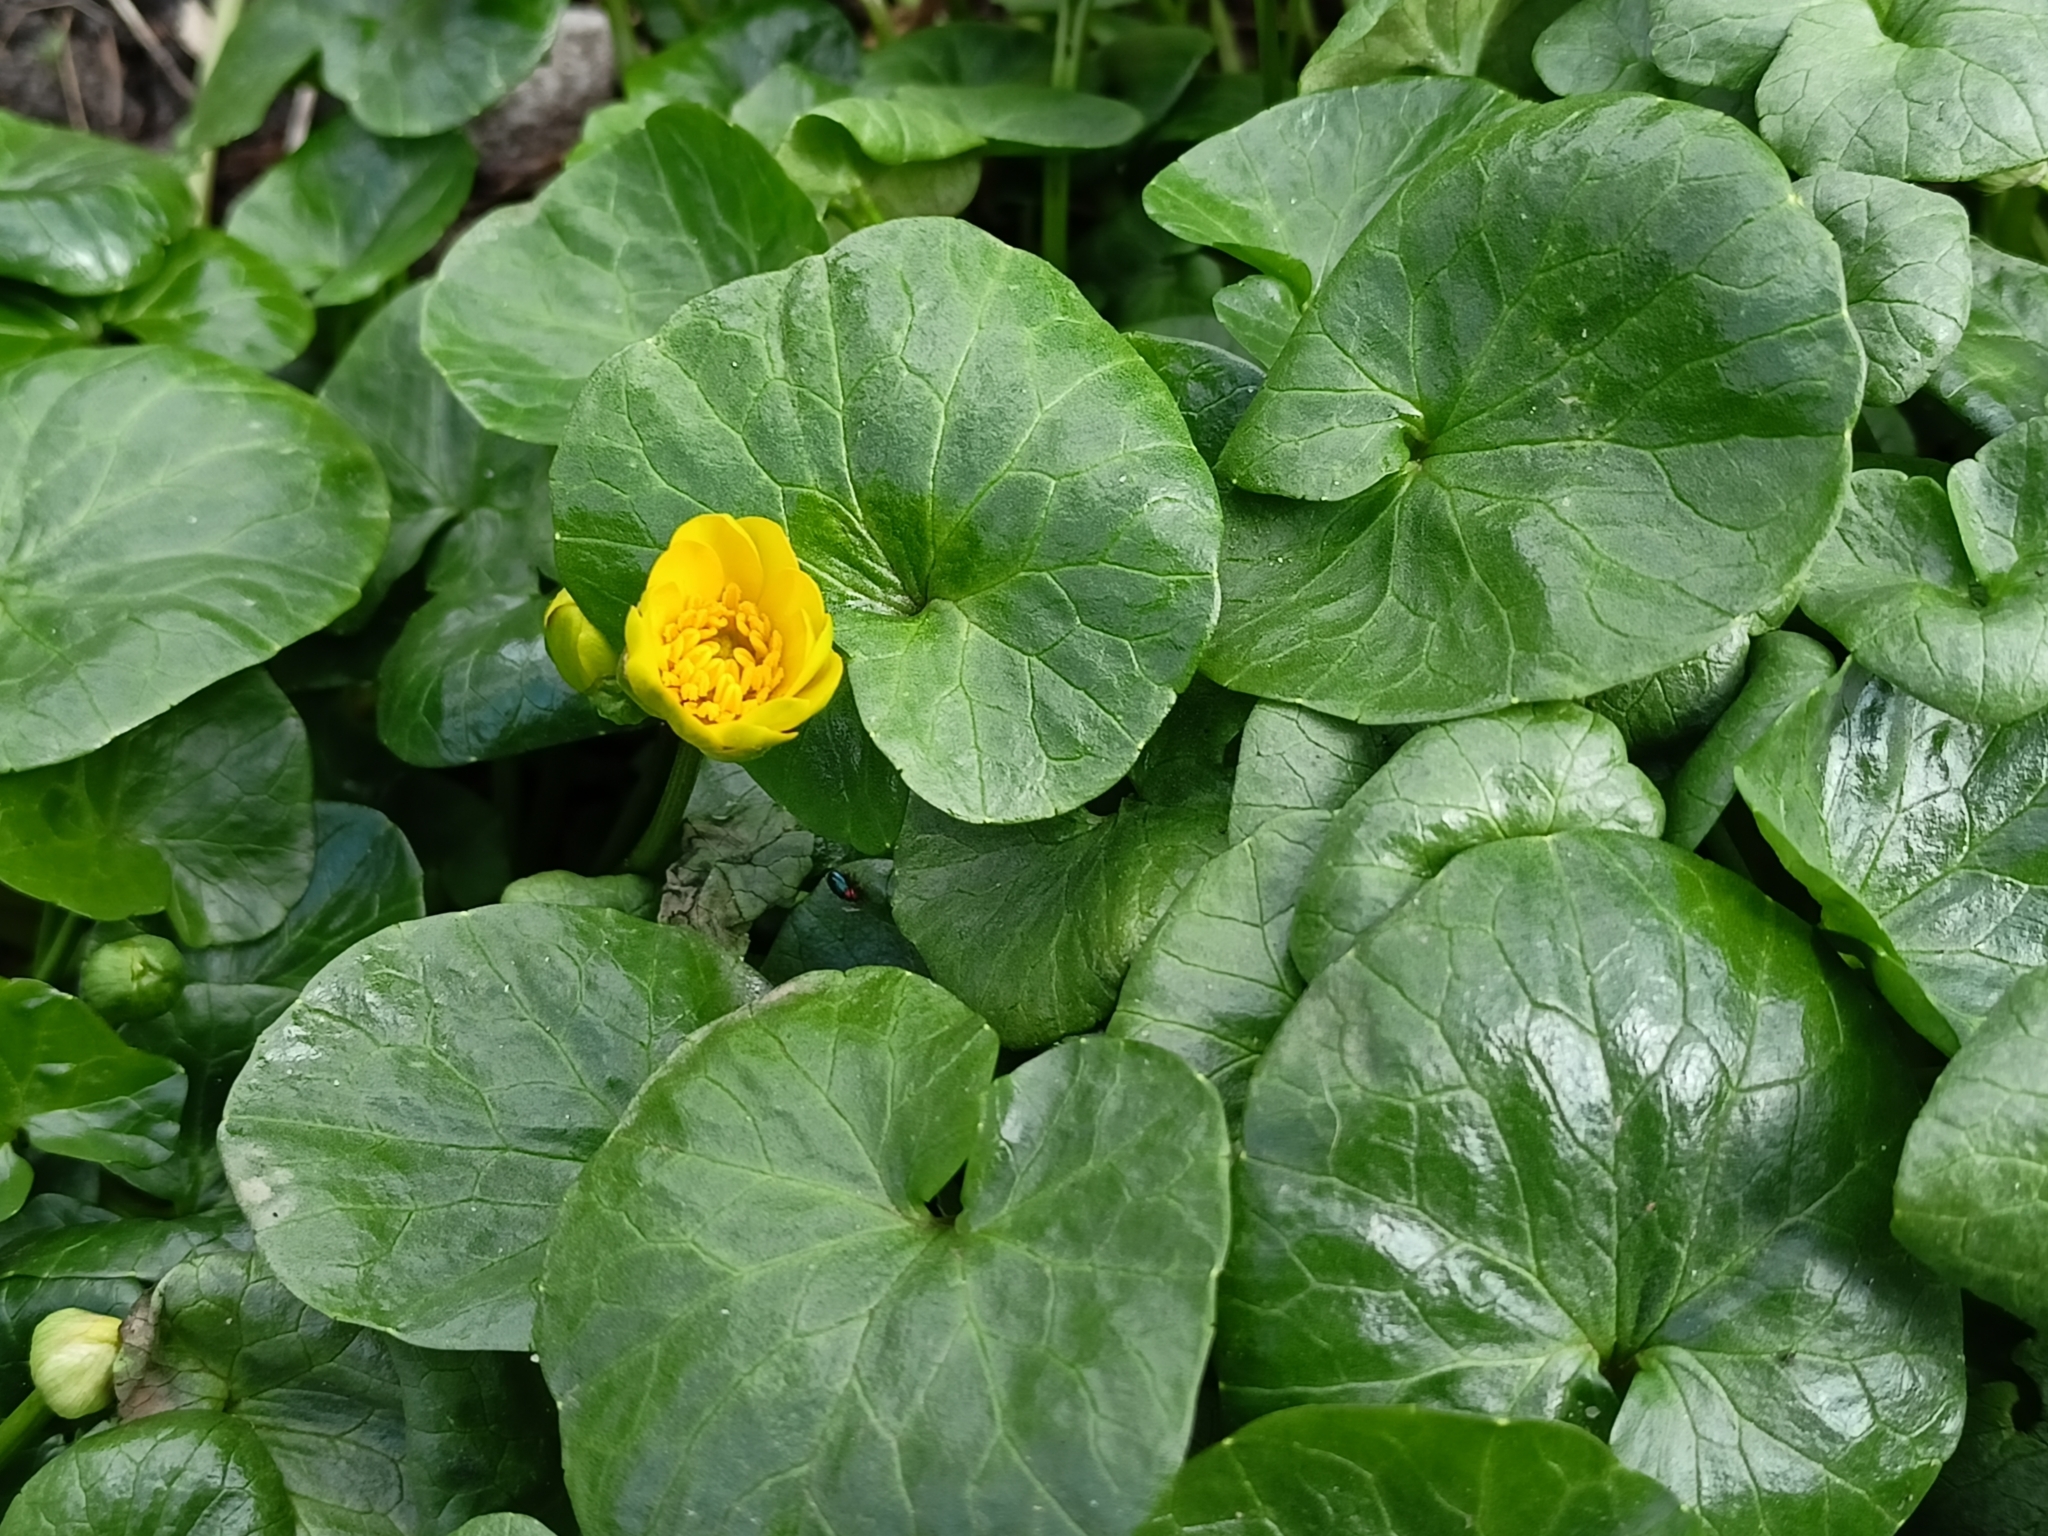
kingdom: Plantae
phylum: Tracheophyta
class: Magnoliopsida
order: Ranunculales
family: Ranunculaceae
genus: Ficaria
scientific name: Ficaria verna
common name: Lesser celandine
